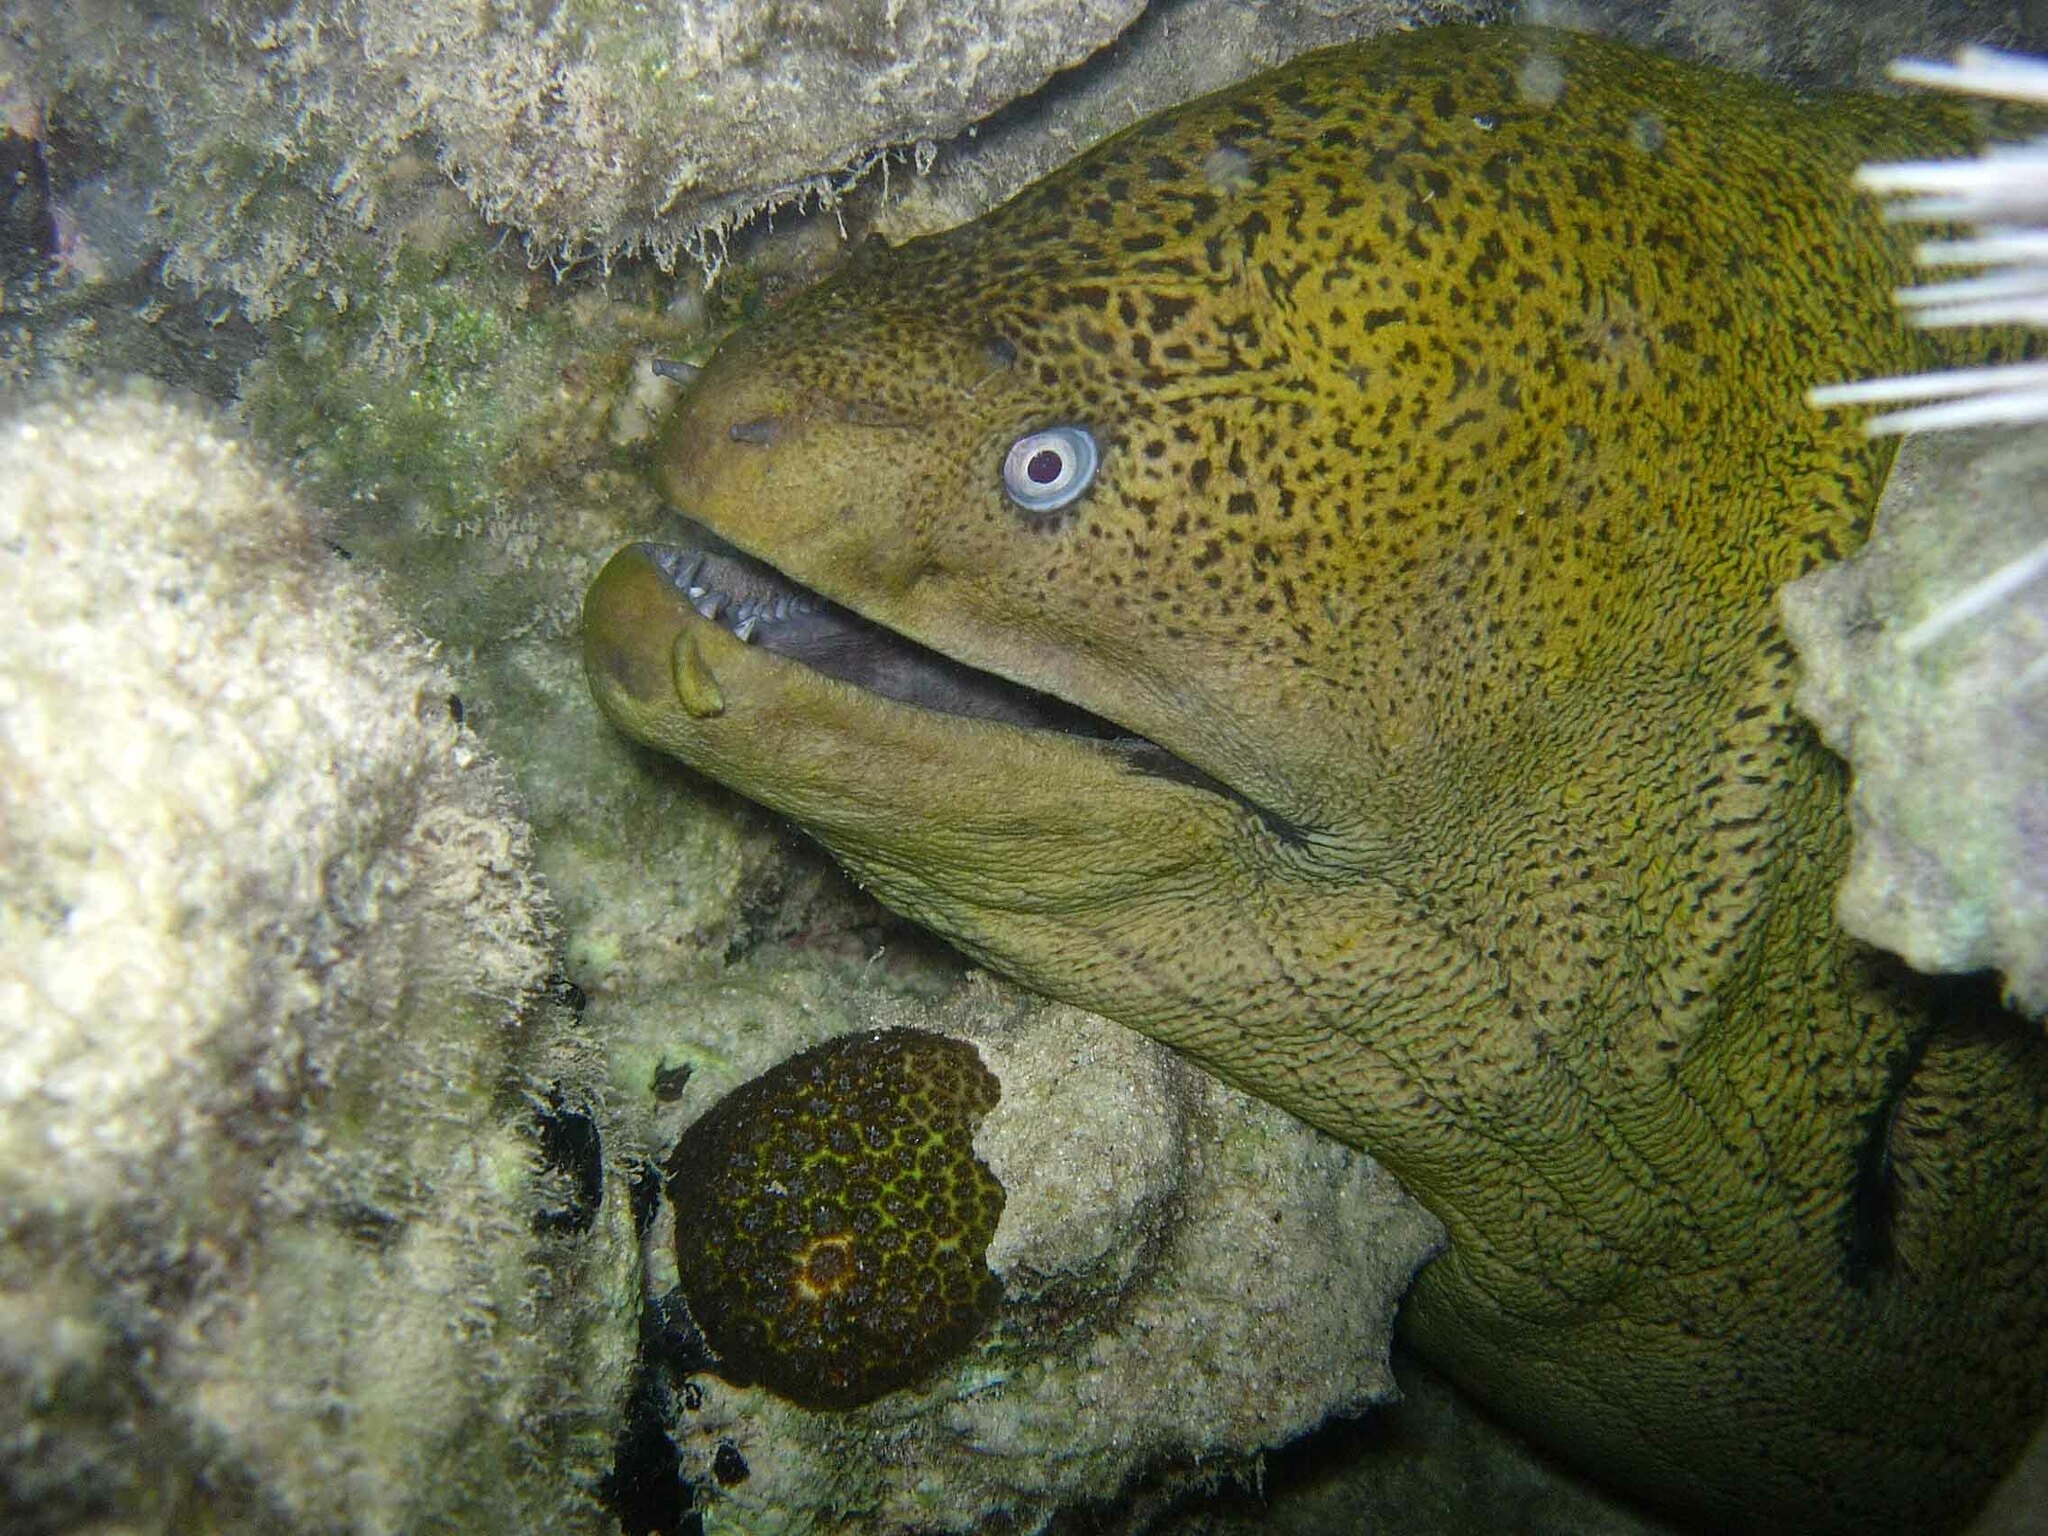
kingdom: Animalia
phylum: Chordata
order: Anguilliformes
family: Muraenidae
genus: Gymnothorax
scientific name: Gymnothorax javanicus
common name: Giant moray
